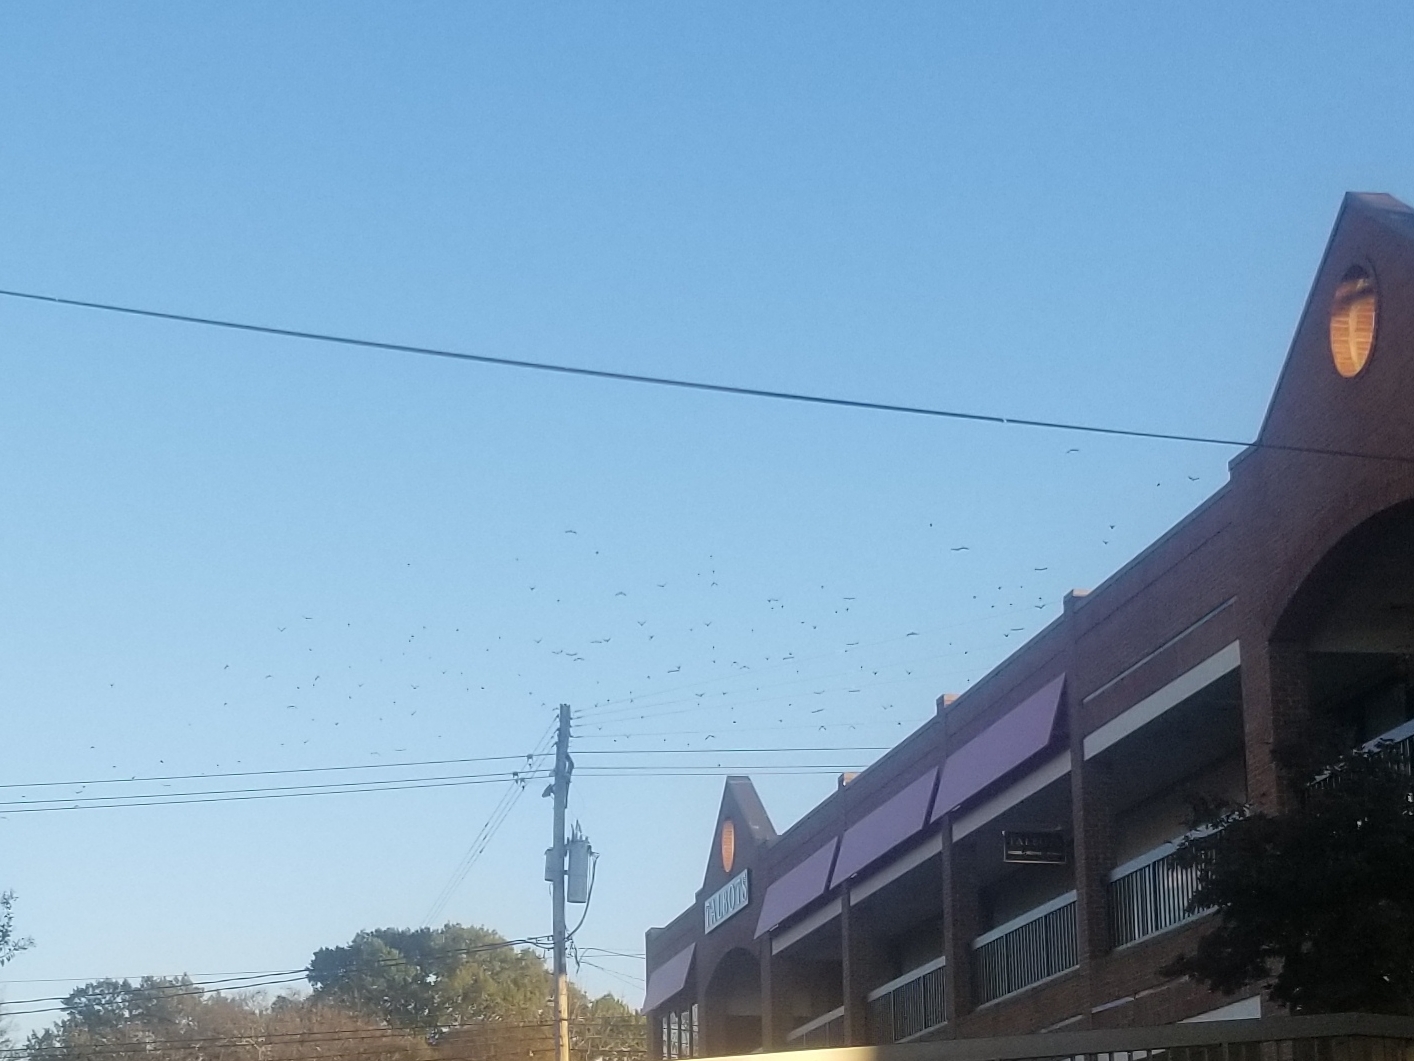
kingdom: Animalia
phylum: Chordata
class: Aves
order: Passeriformes
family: Sturnidae
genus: Sturnus
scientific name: Sturnus vulgaris
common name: Common starling
